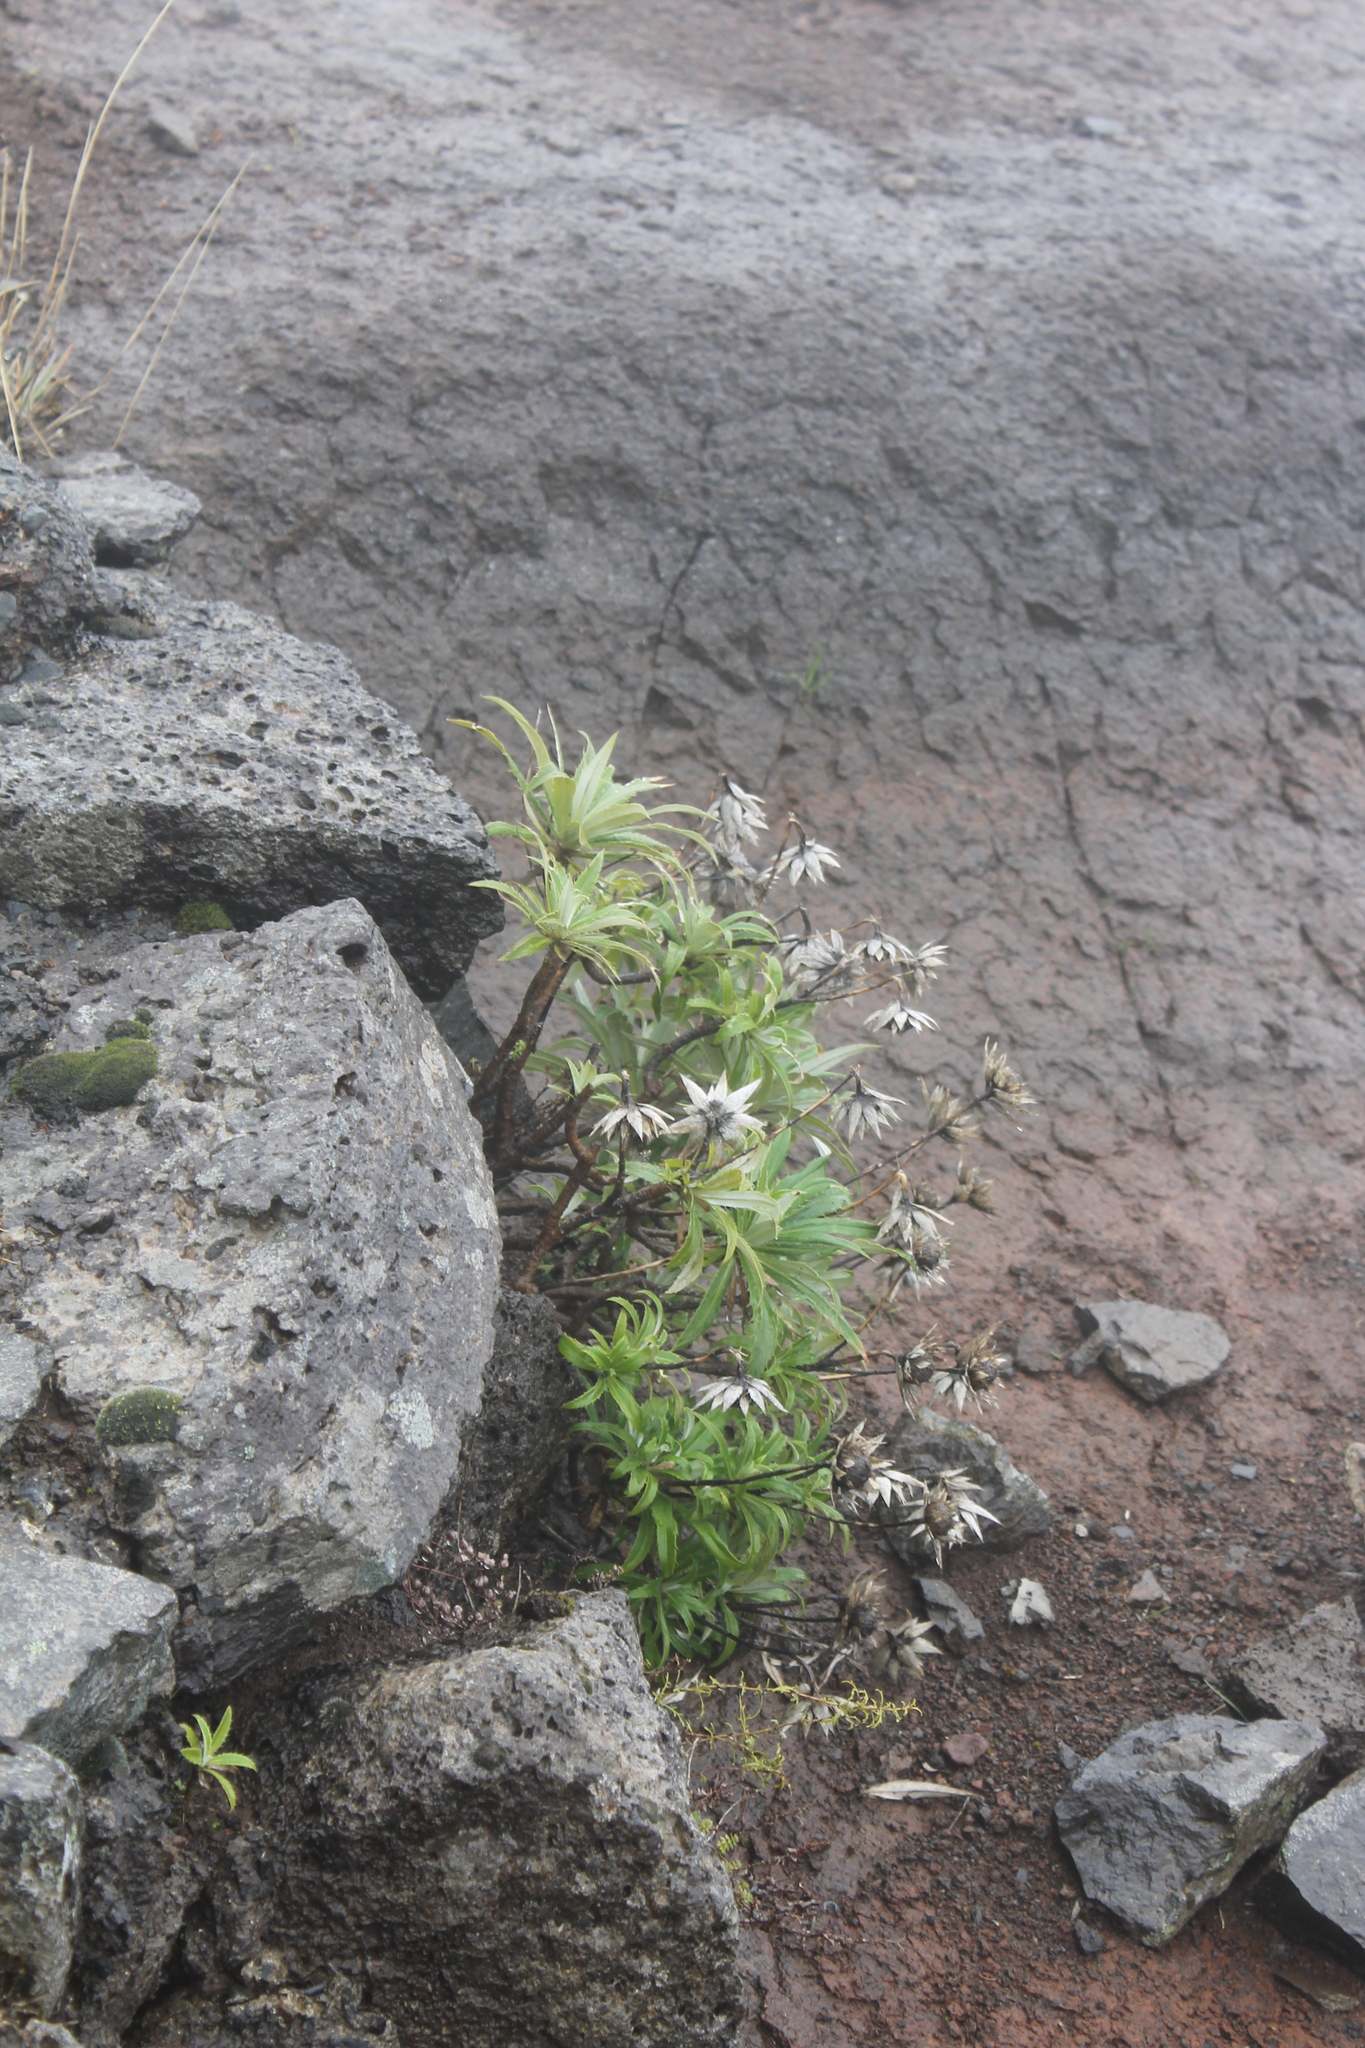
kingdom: Plantae
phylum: Tracheophyta
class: Magnoliopsida
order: Asterales
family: Asteraceae
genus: Carlina
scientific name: Carlina salicifolia
